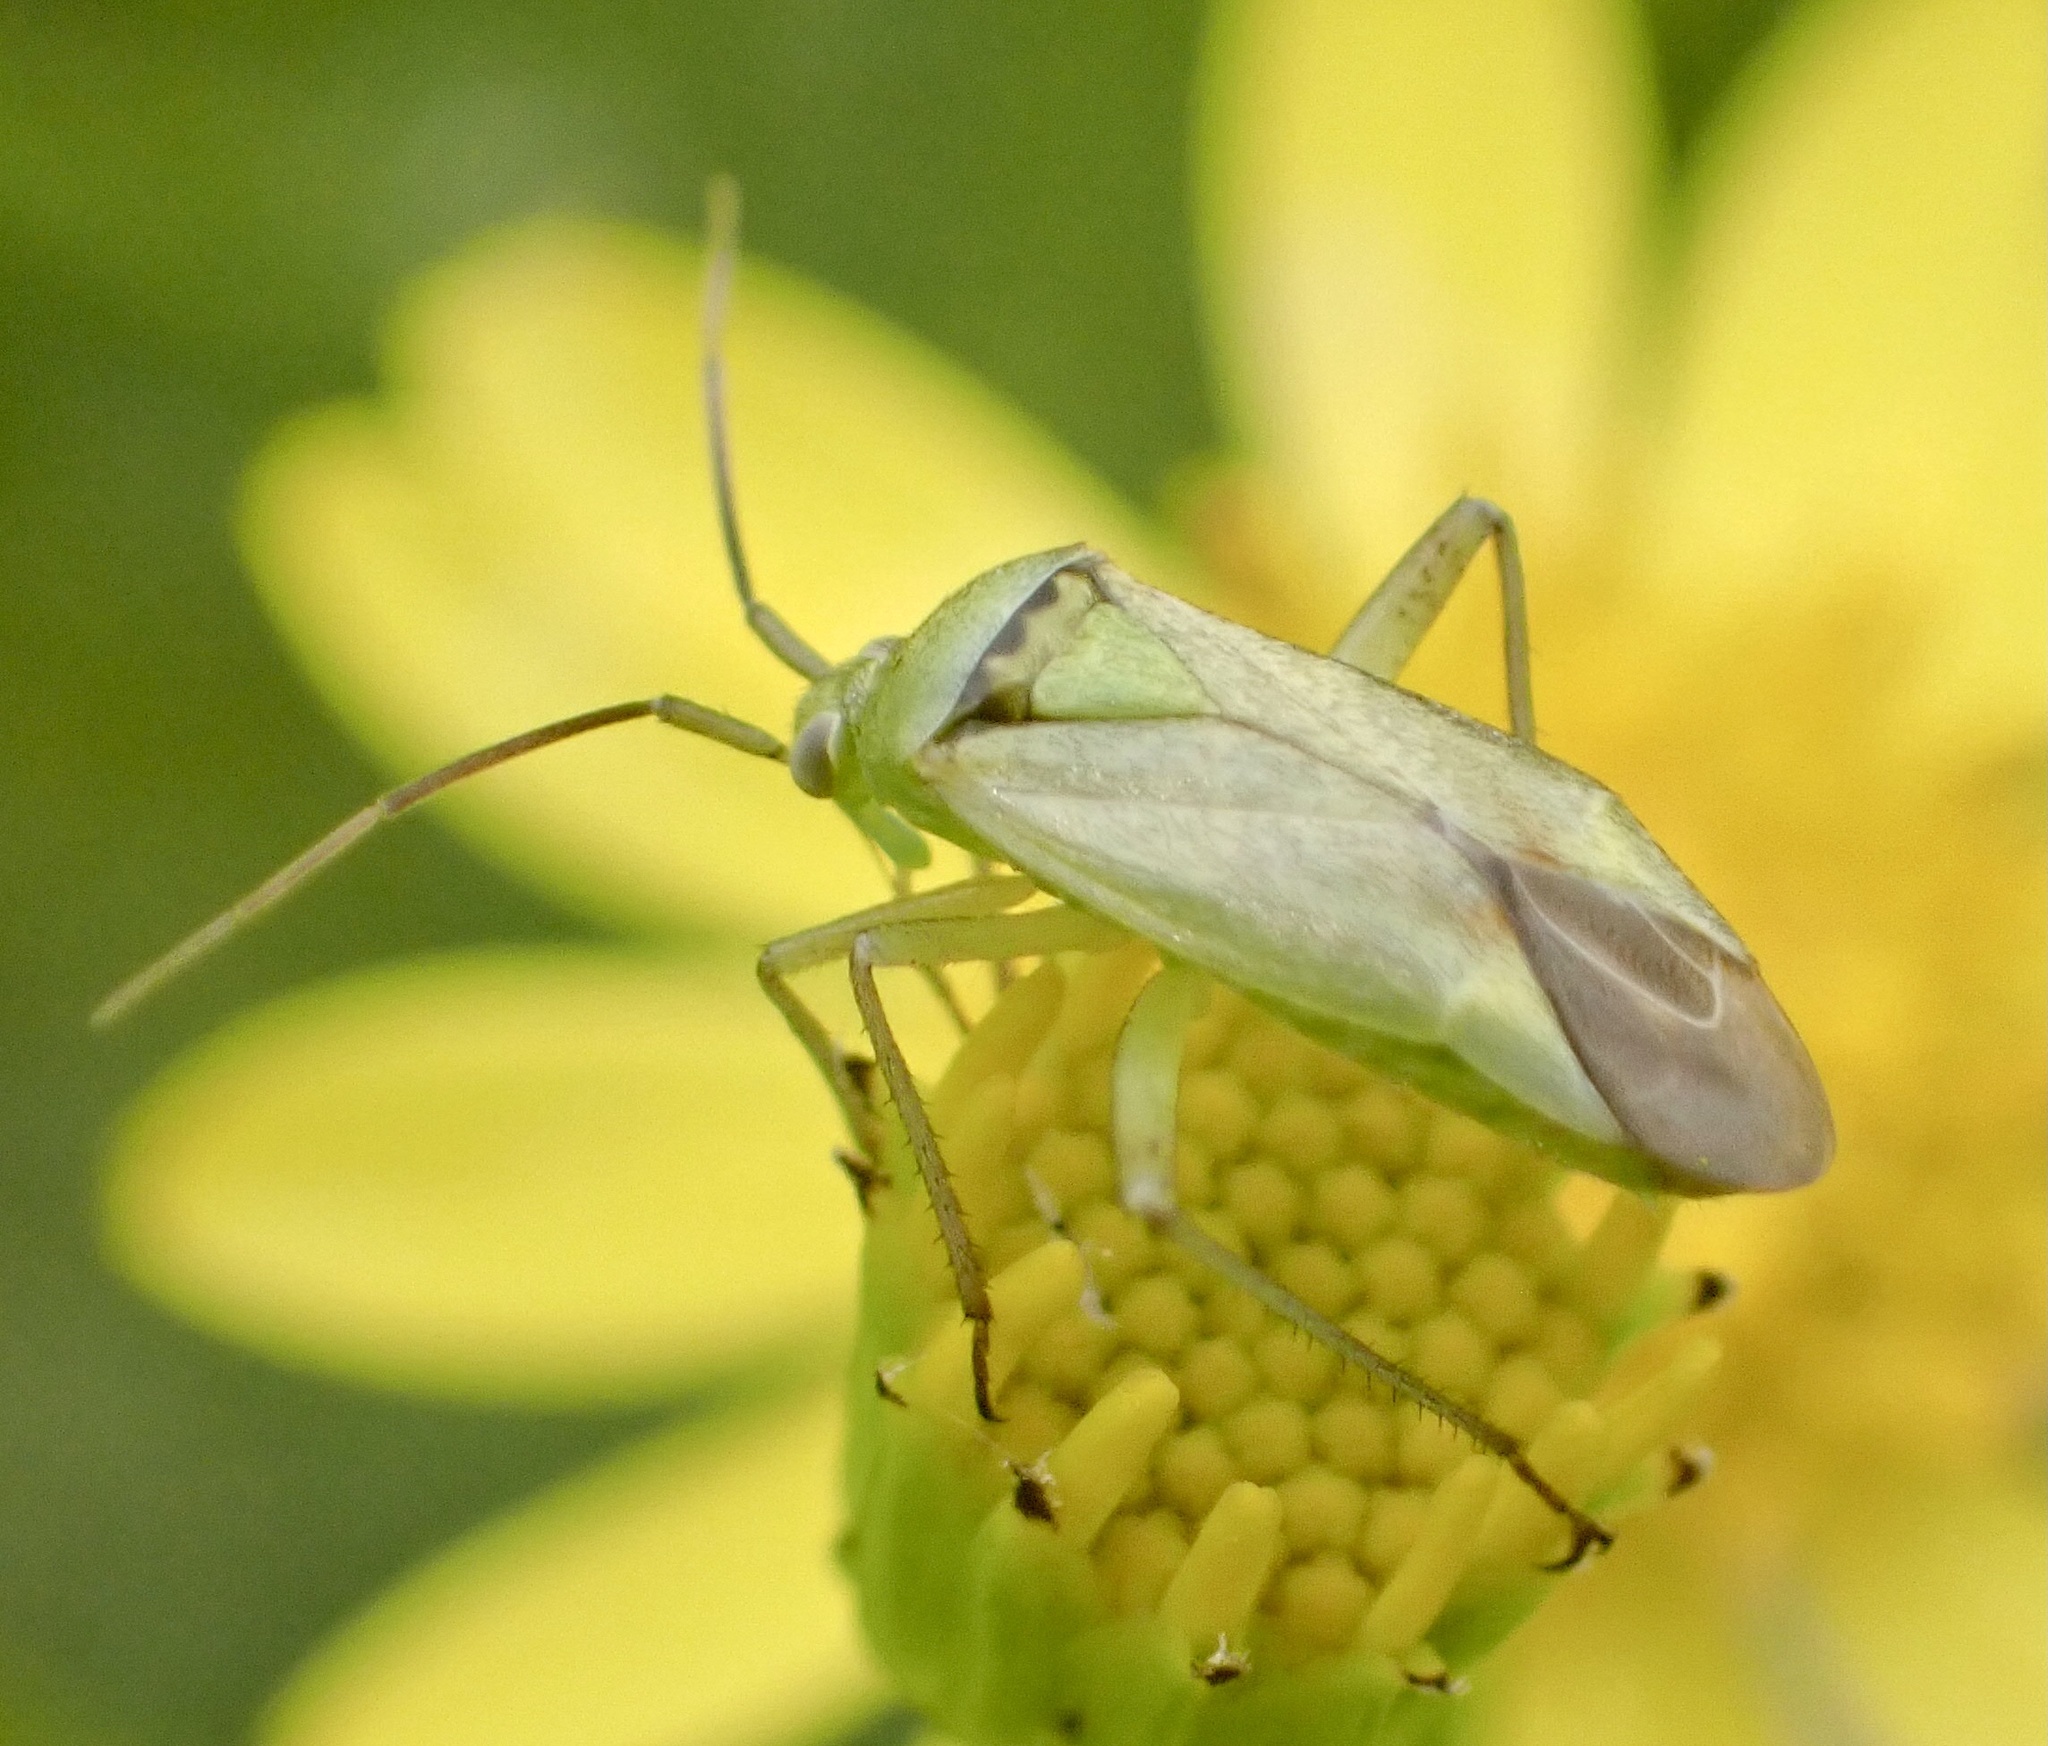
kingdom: Animalia
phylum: Arthropoda
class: Insecta
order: Hemiptera
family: Miridae
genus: Closterotomus
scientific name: Closterotomus norvegicus
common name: Plant bug
